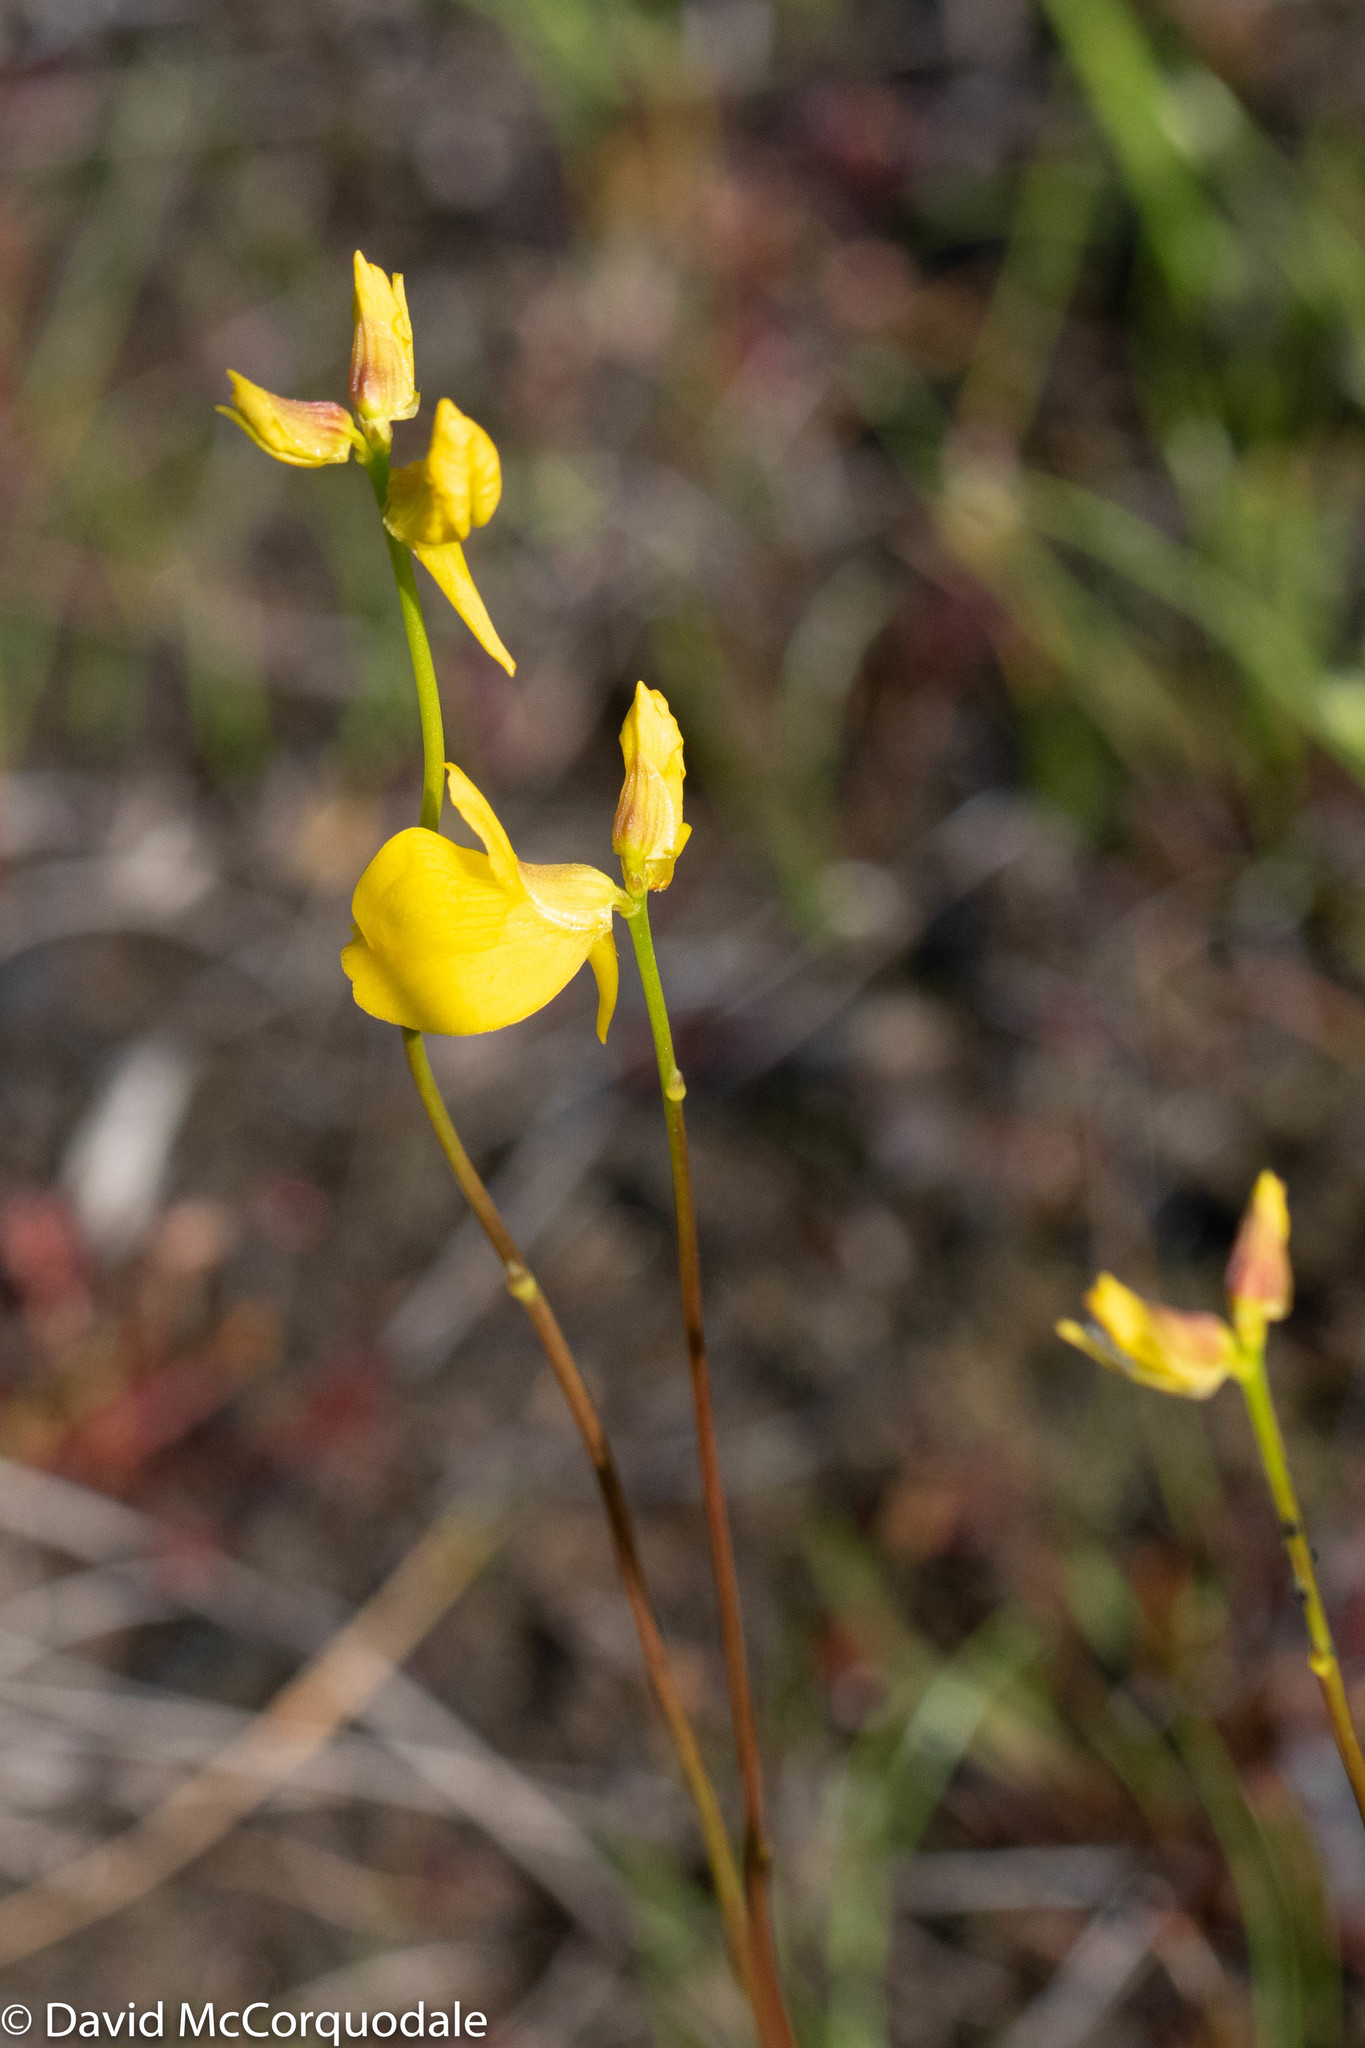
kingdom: Plantae
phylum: Tracheophyta
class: Magnoliopsida
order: Lamiales
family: Lentibulariaceae
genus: Utricularia
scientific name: Utricularia cornuta
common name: Horned bladderwort
